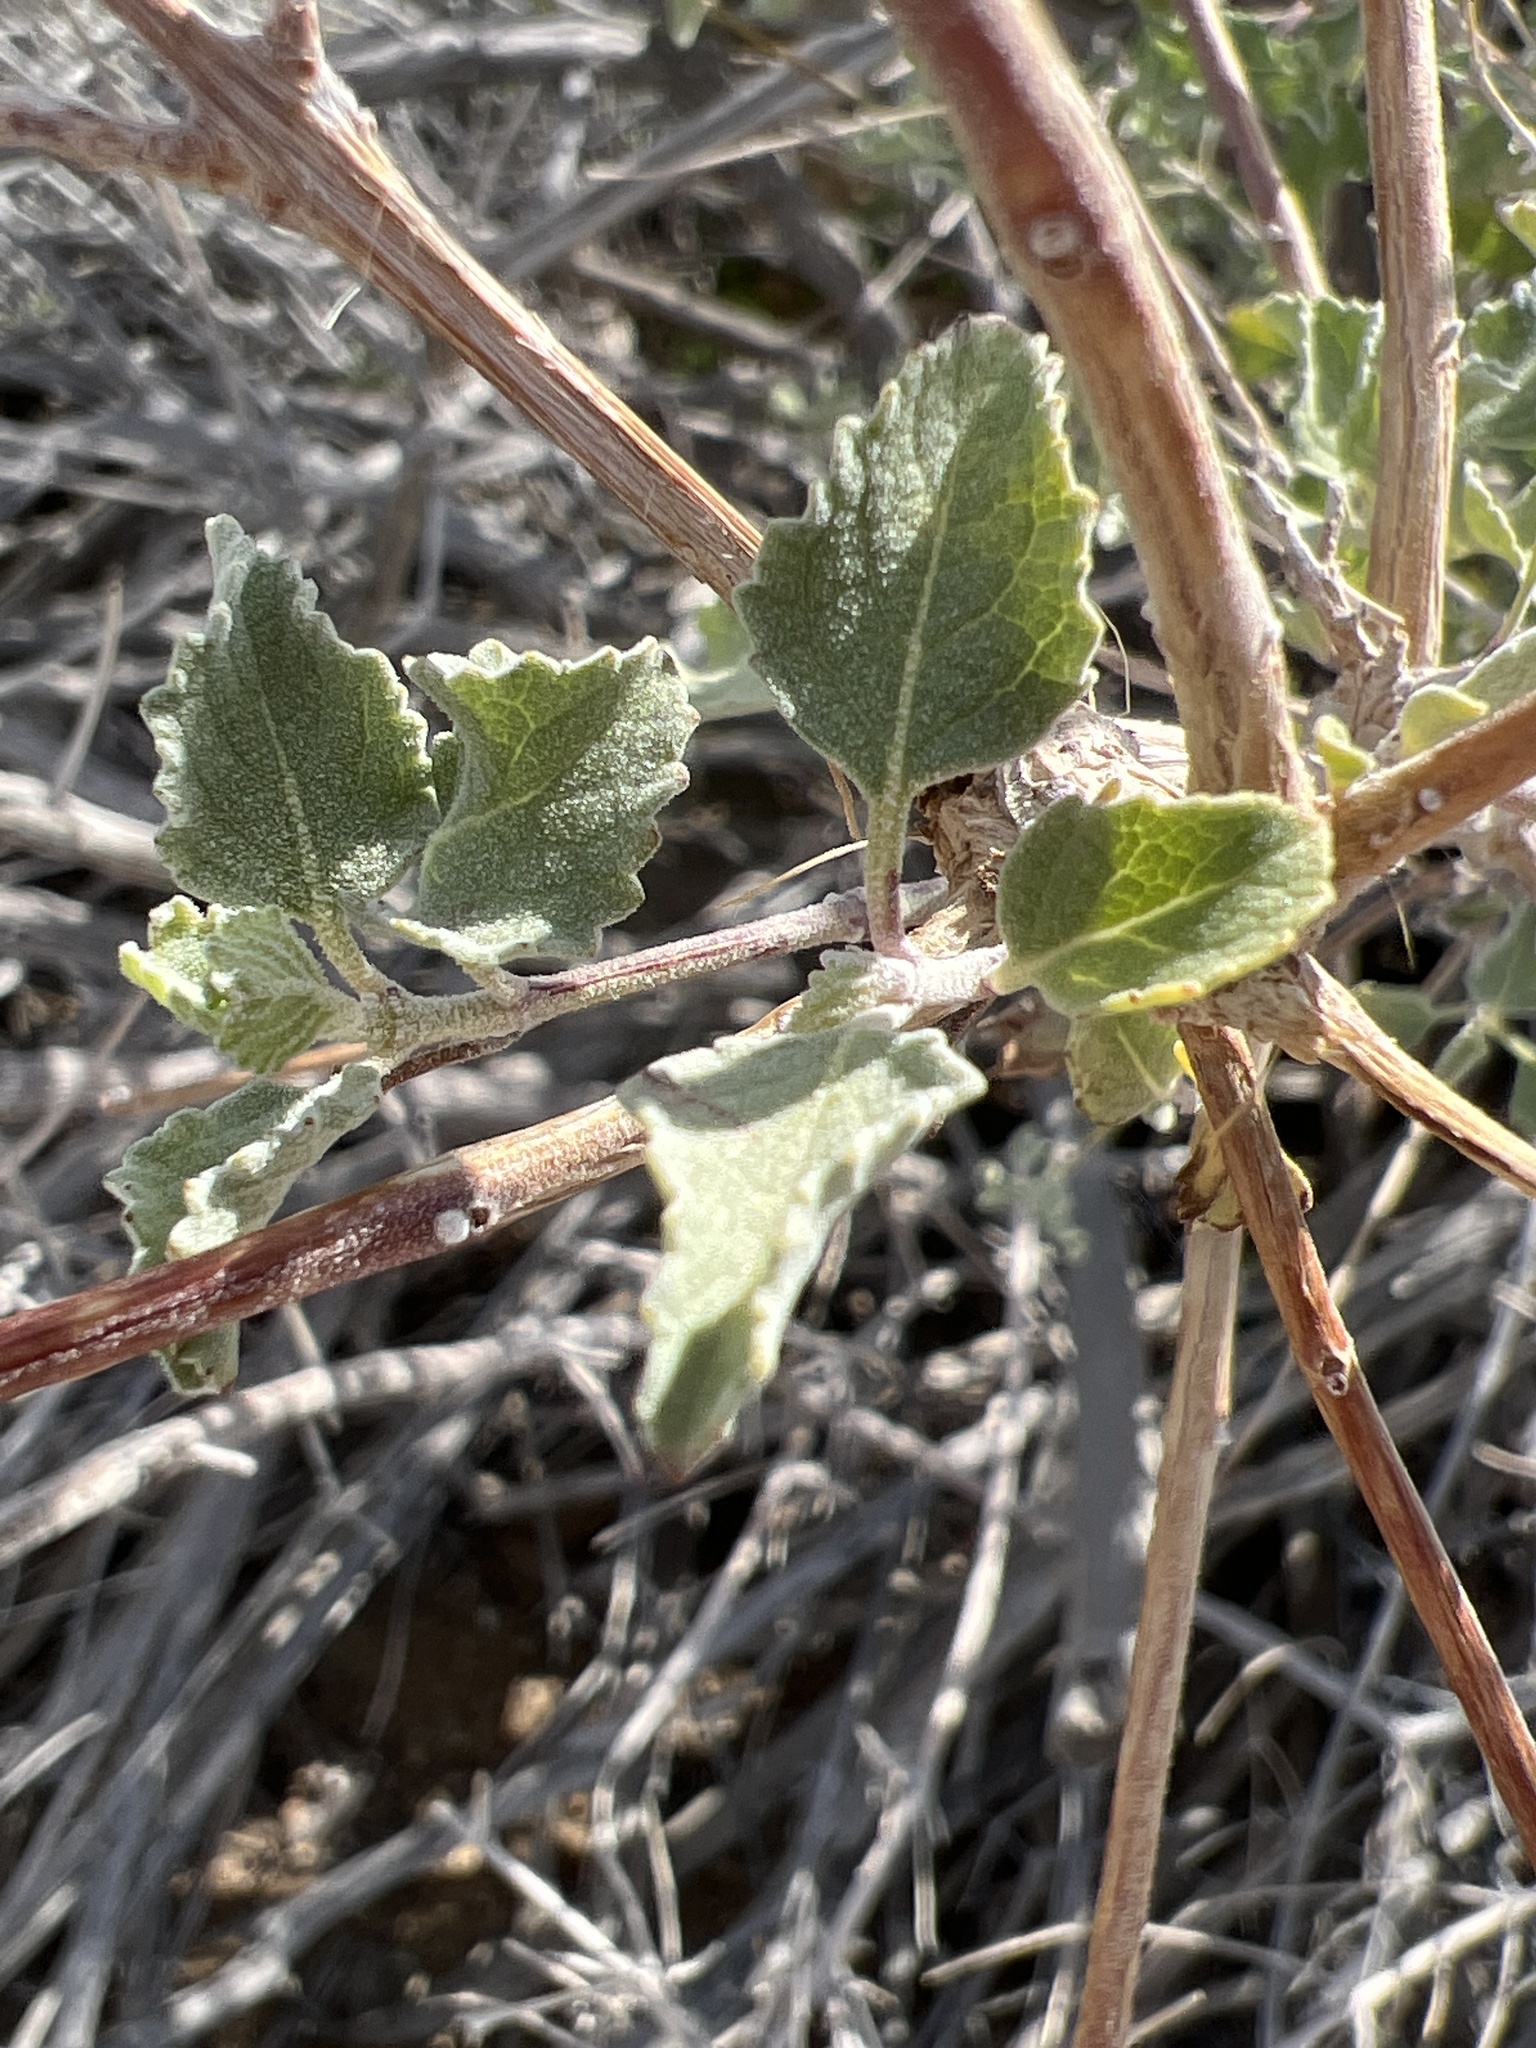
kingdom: Plantae
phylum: Tracheophyta
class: Magnoliopsida
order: Lamiales
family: Lamiaceae
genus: Condea
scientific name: Condea emoryi
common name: Chia
